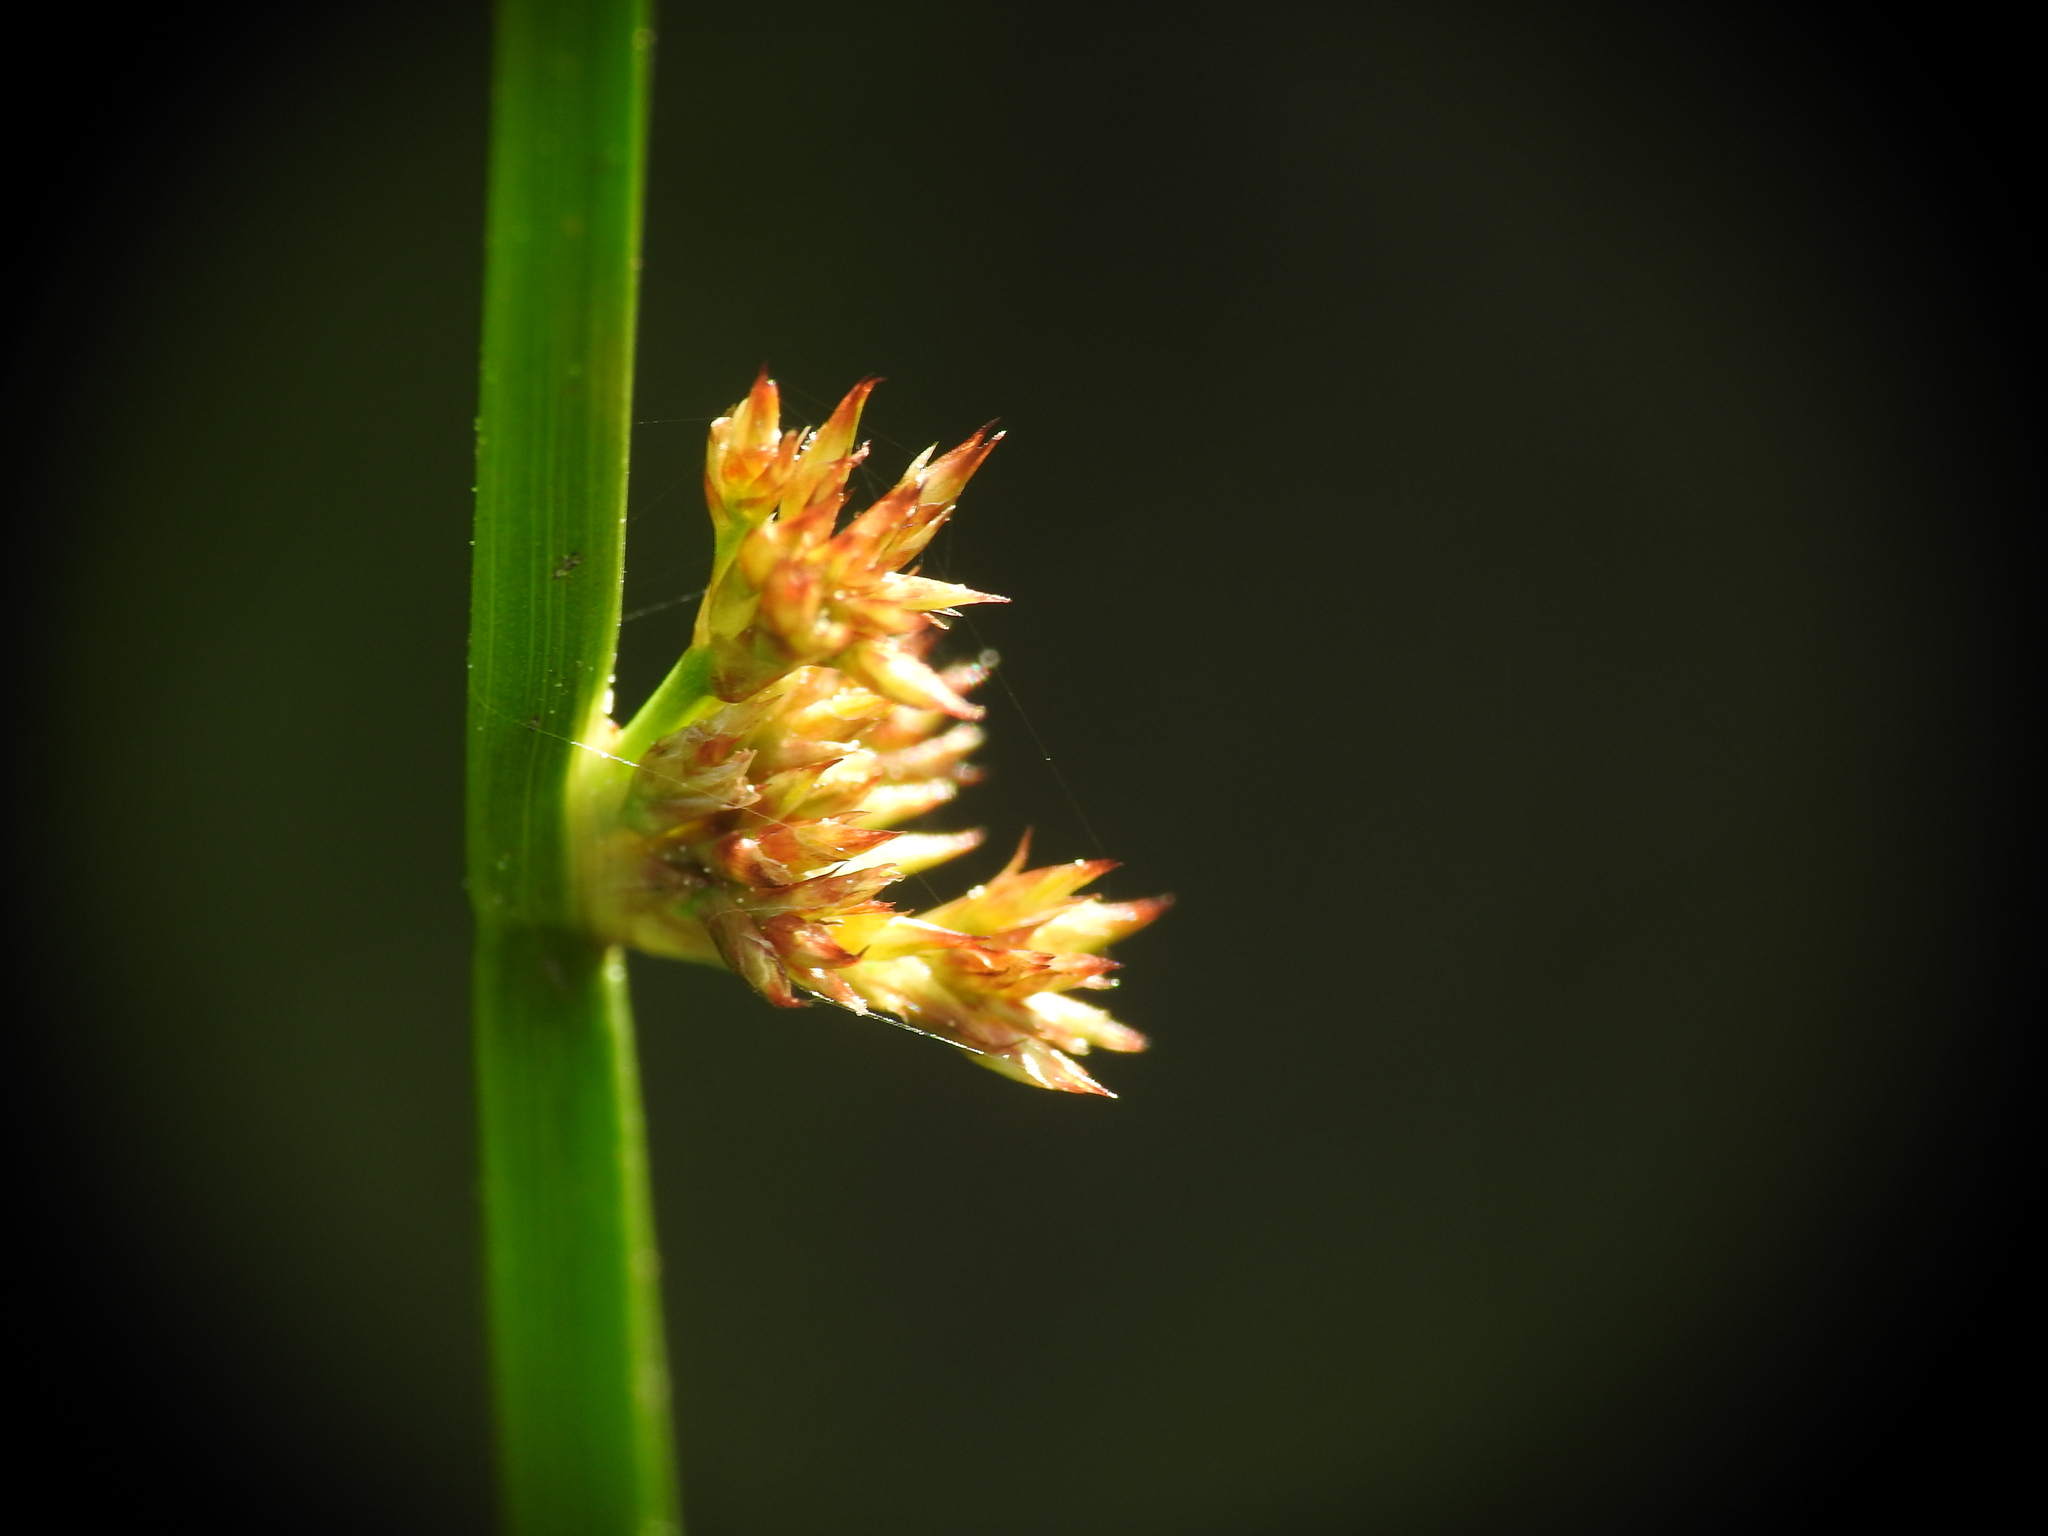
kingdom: Plantae
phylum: Tracheophyta
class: Liliopsida
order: Poales
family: Juncaceae
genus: Juncus
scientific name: Juncus effusus
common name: Soft rush
